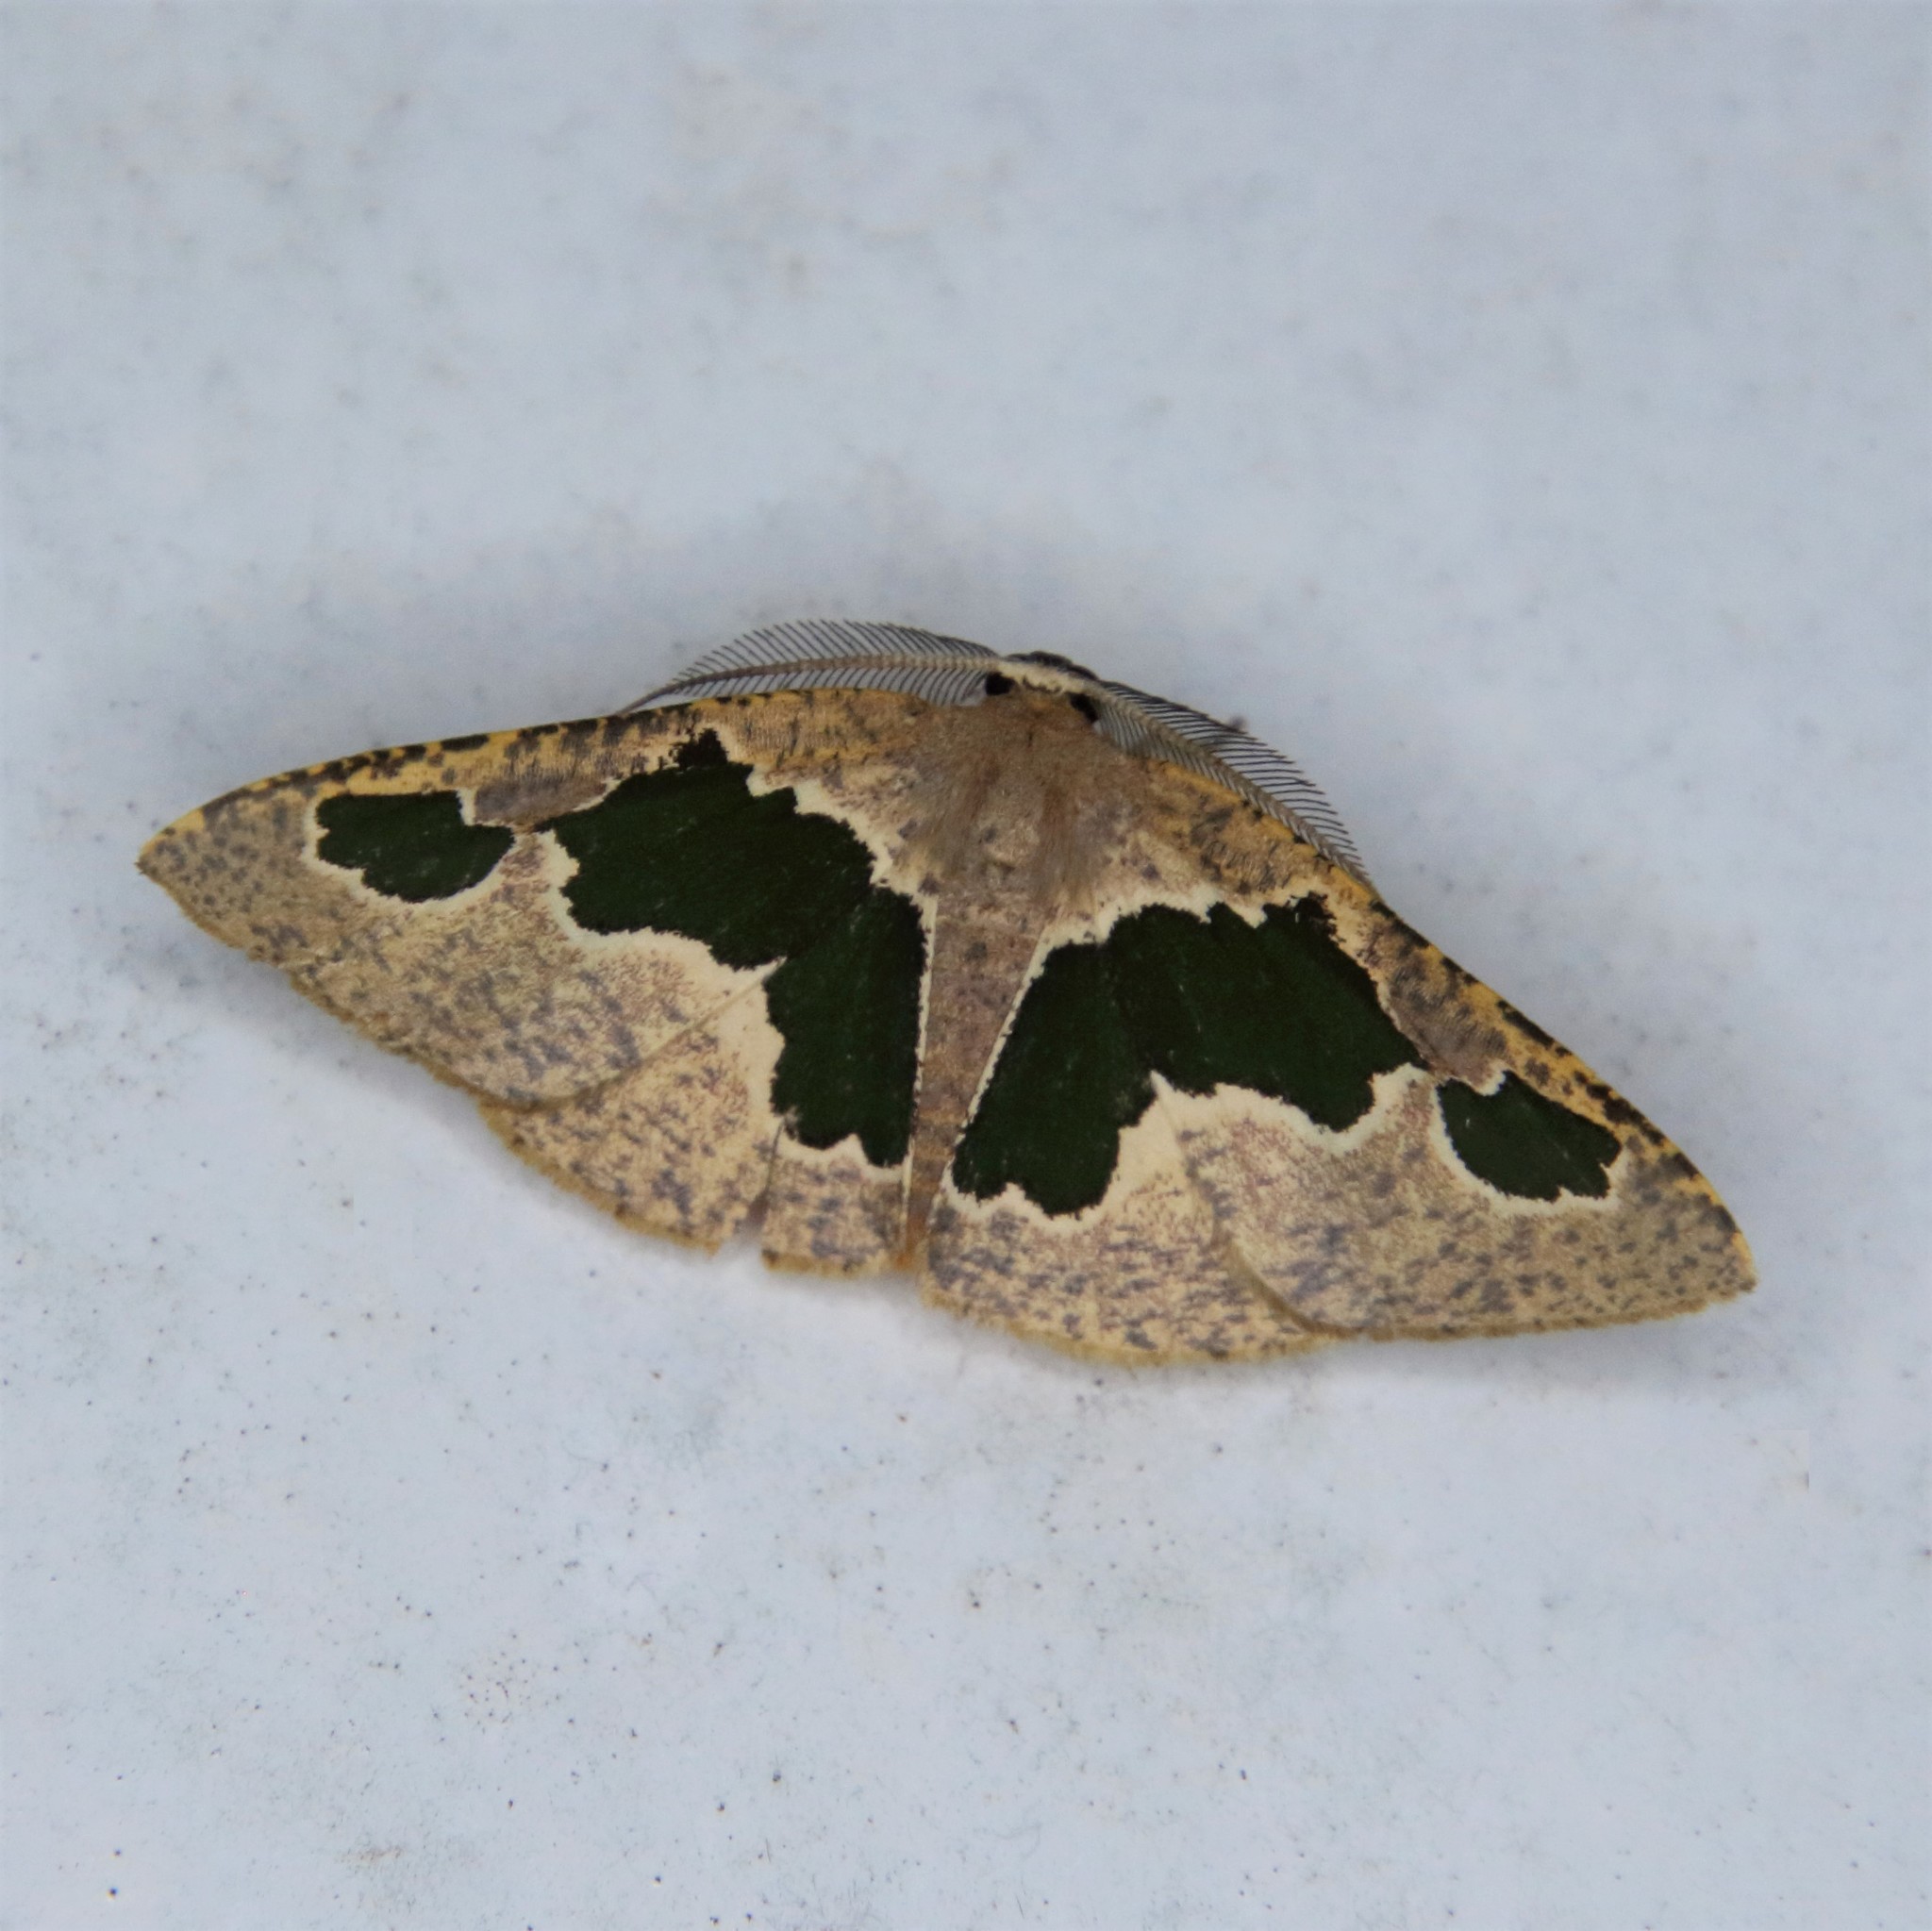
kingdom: Animalia
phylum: Arthropoda
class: Insecta
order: Lepidoptera
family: Geometridae
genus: Celenna
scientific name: Celenna festivaria
